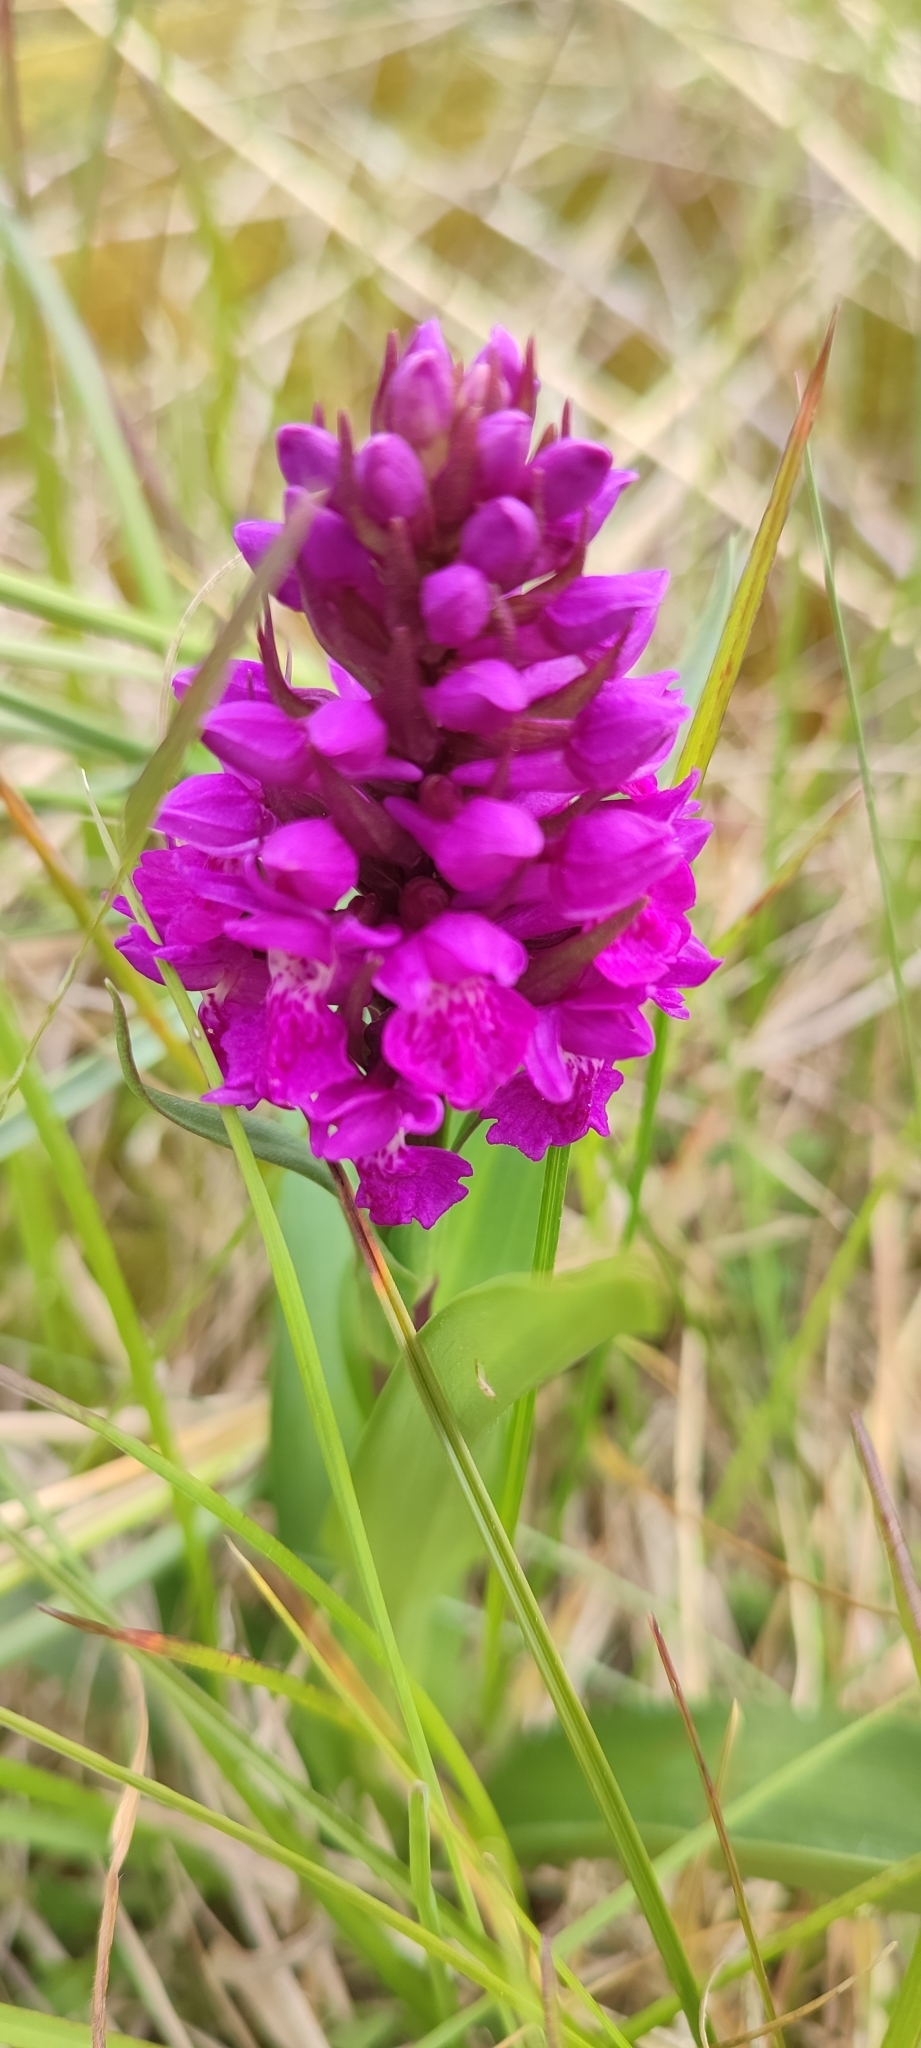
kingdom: Plantae
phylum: Tracheophyta
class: Liliopsida
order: Asparagales
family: Orchidaceae
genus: Dactylorhiza
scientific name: Dactylorhiza majalis
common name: Marsh orchid
